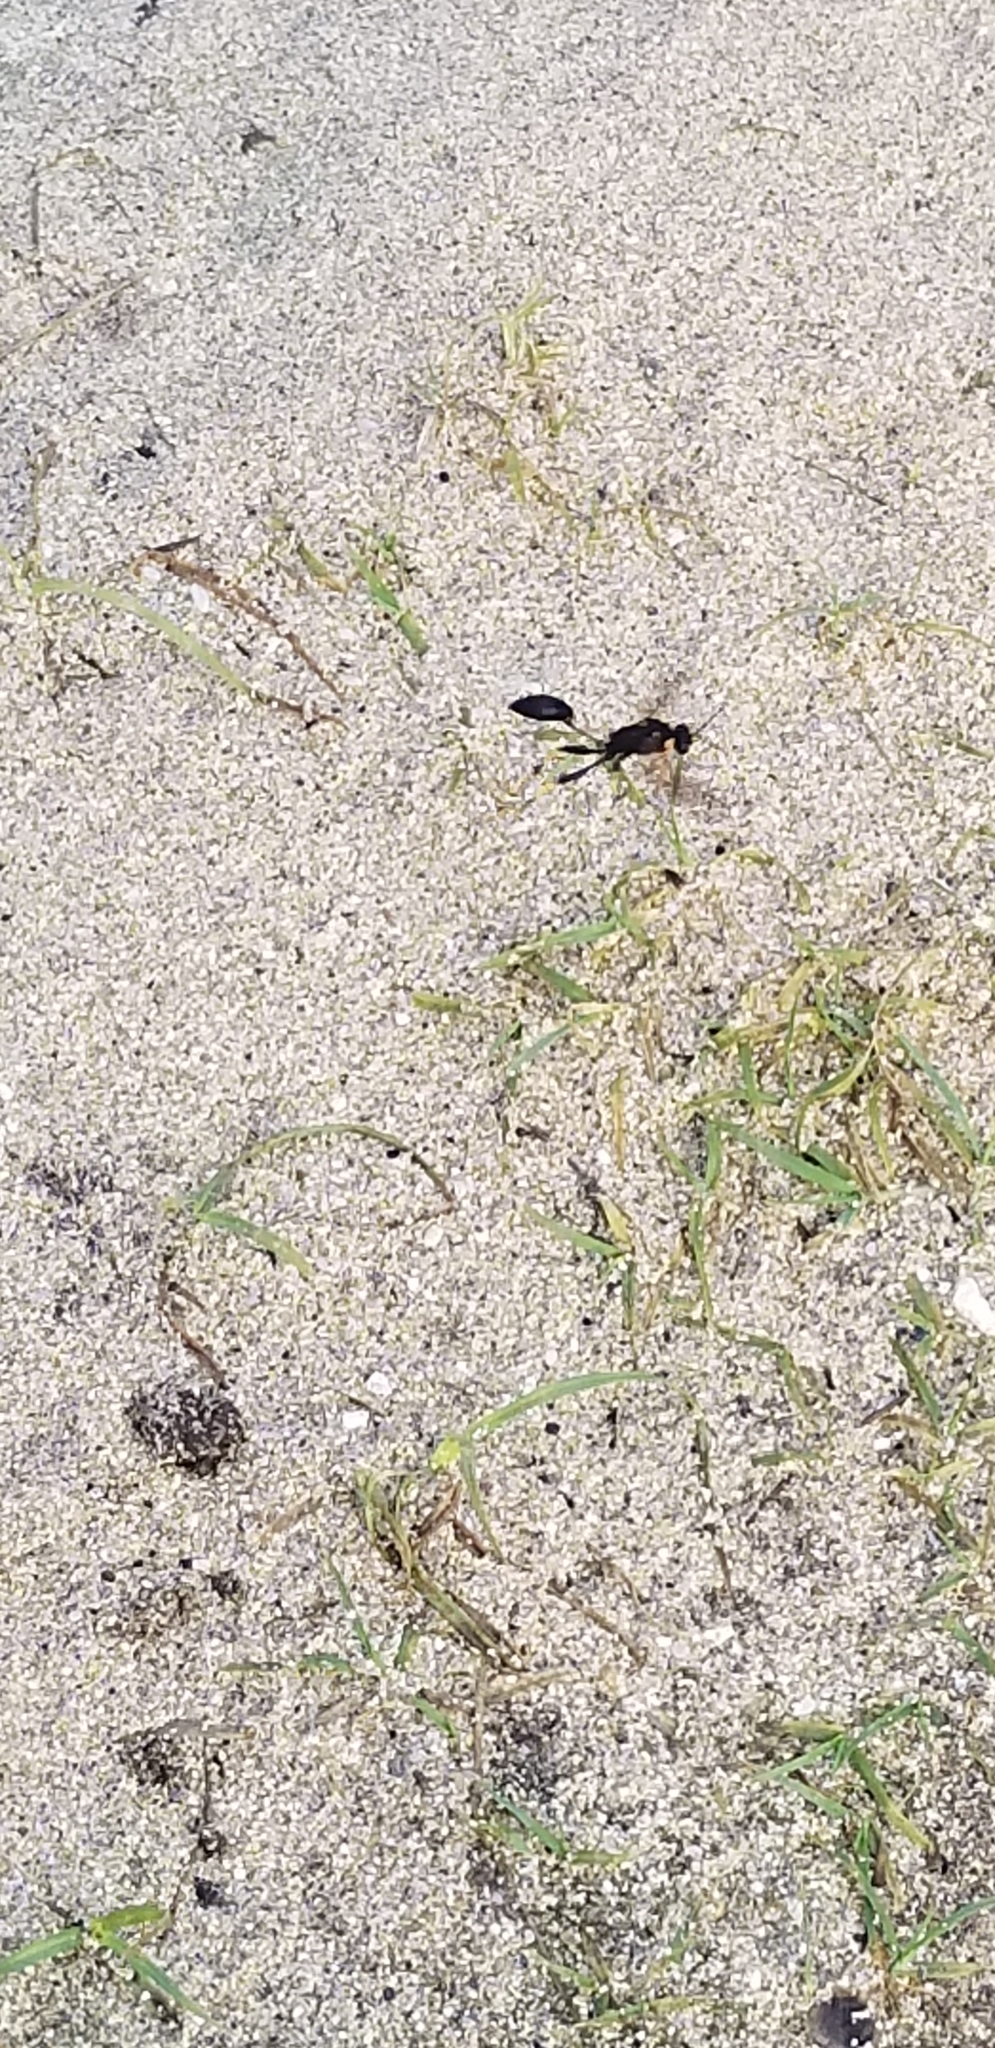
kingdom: Animalia
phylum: Arthropoda
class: Insecta
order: Hymenoptera
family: Sphecidae
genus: Sceliphron
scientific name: Sceliphron caementarium
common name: Mud dauber
